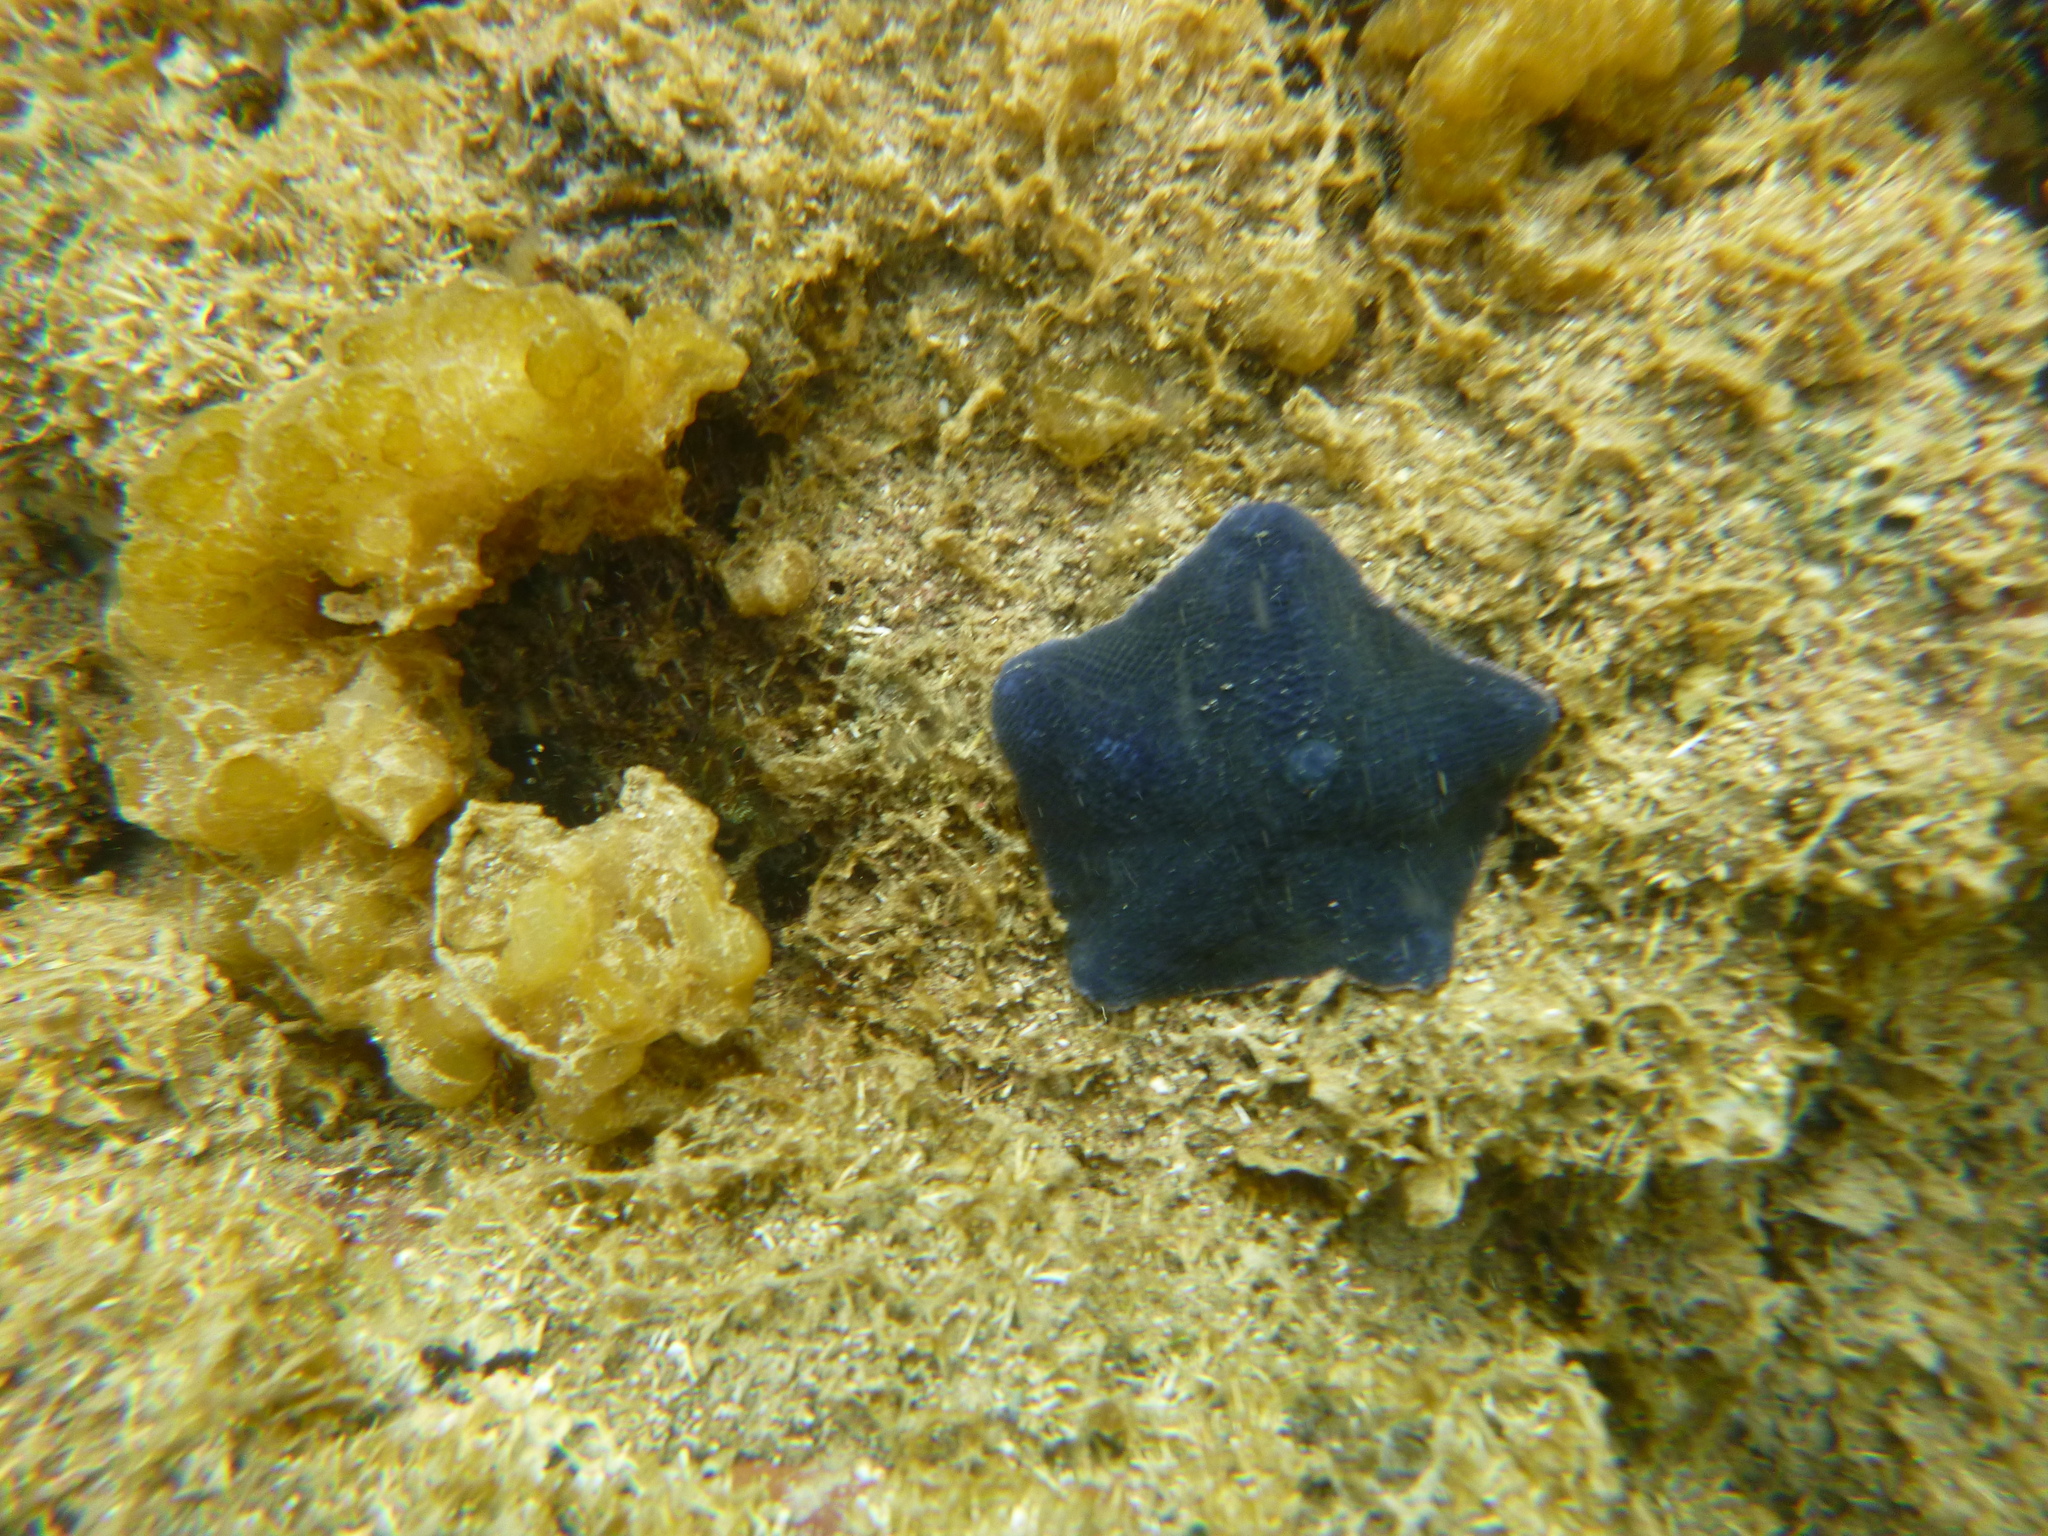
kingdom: Animalia
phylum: Echinodermata
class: Asteroidea
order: Valvatida
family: Asterinidae
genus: Patiriella
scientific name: Patiriella regularis
